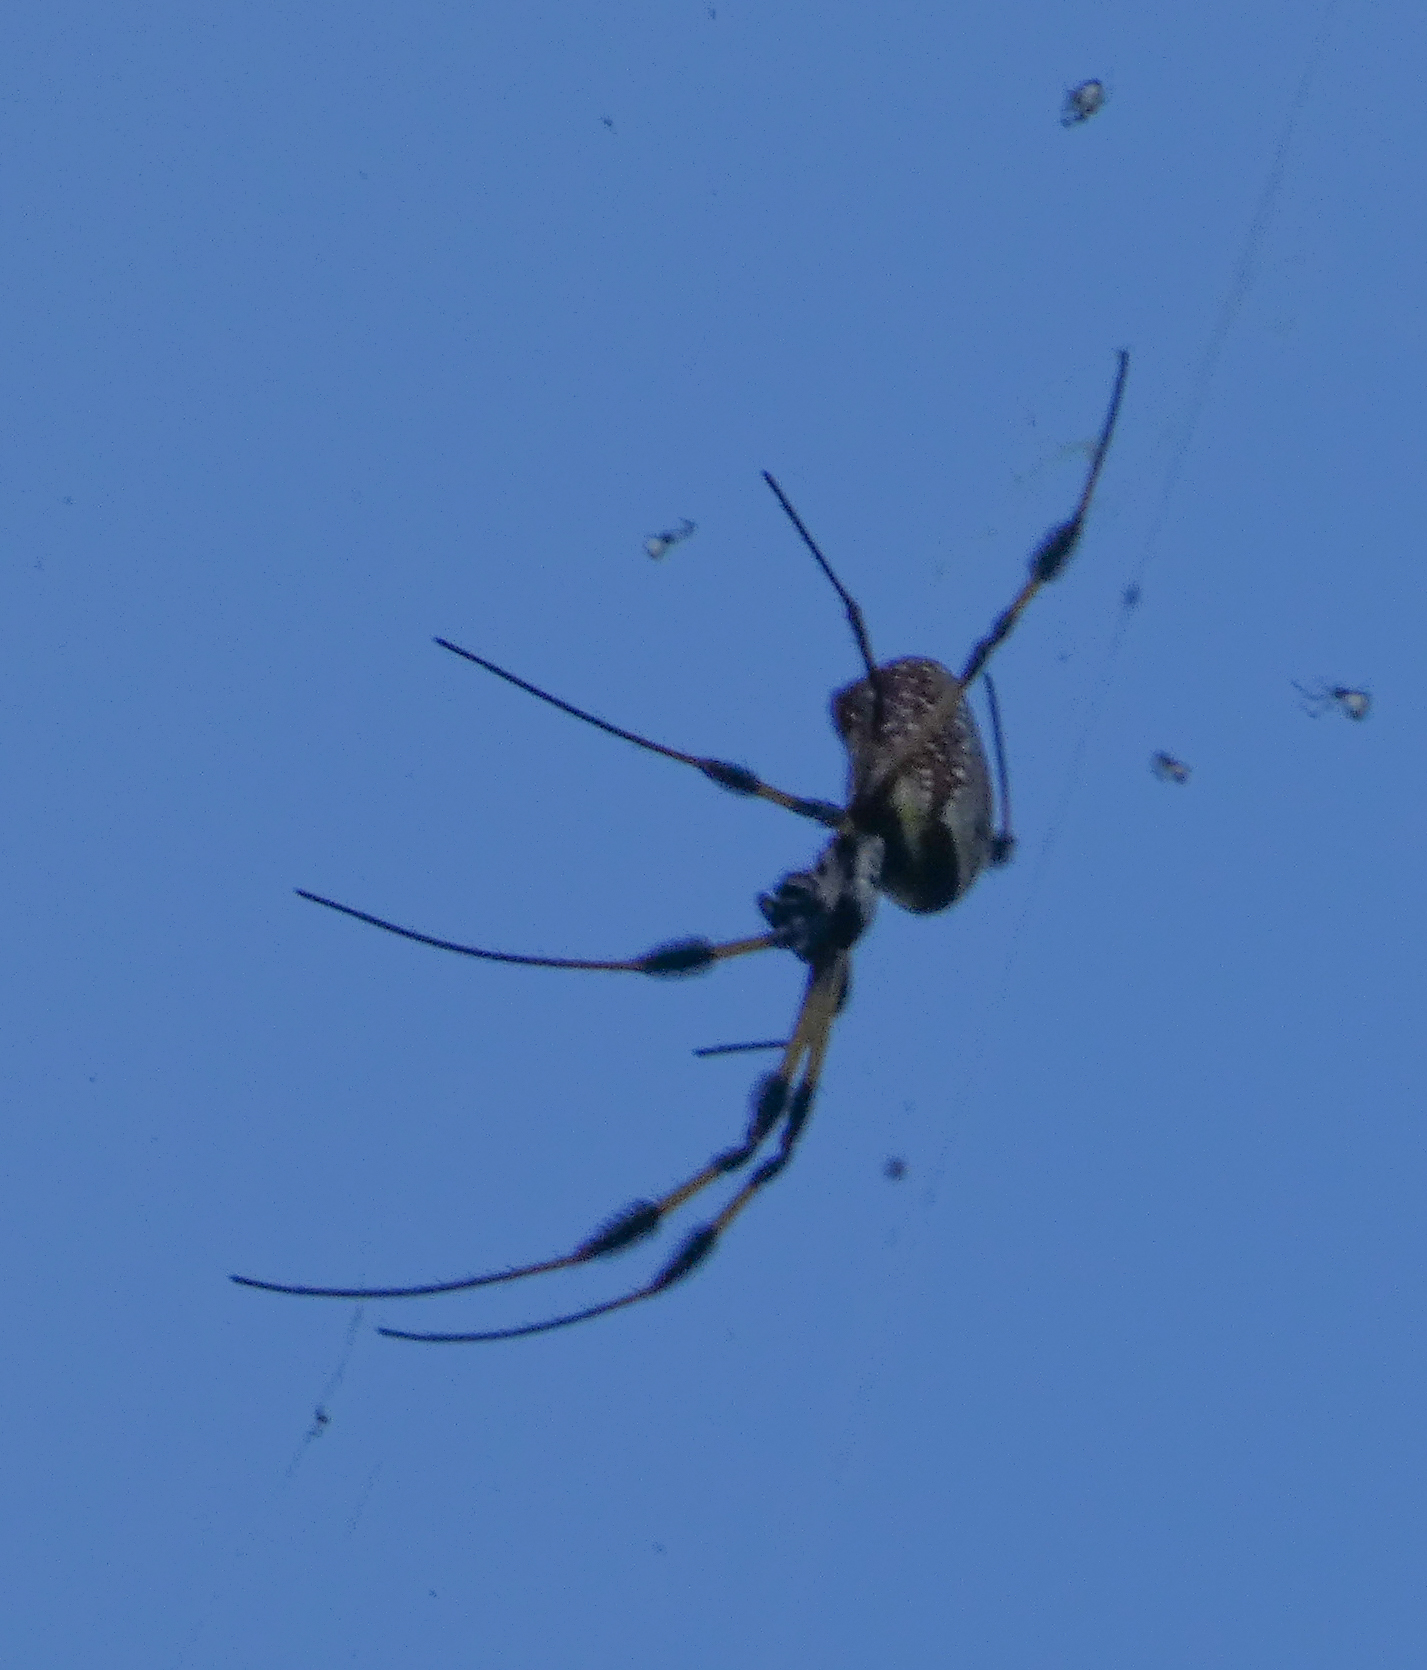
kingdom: Animalia
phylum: Arthropoda
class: Arachnida
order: Araneae
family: Araneidae
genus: Trichonephila
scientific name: Trichonephila clavipes
